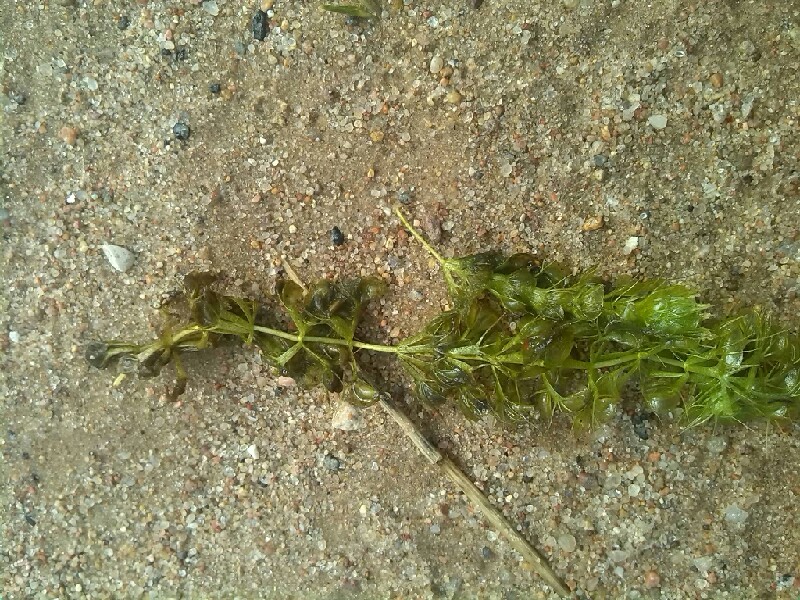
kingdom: Plantae
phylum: Tracheophyta
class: Magnoliopsida
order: Caryophyllales
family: Droseraceae
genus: Aldrovanda
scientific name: Aldrovanda vesiculosa
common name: Waterwheel plant
